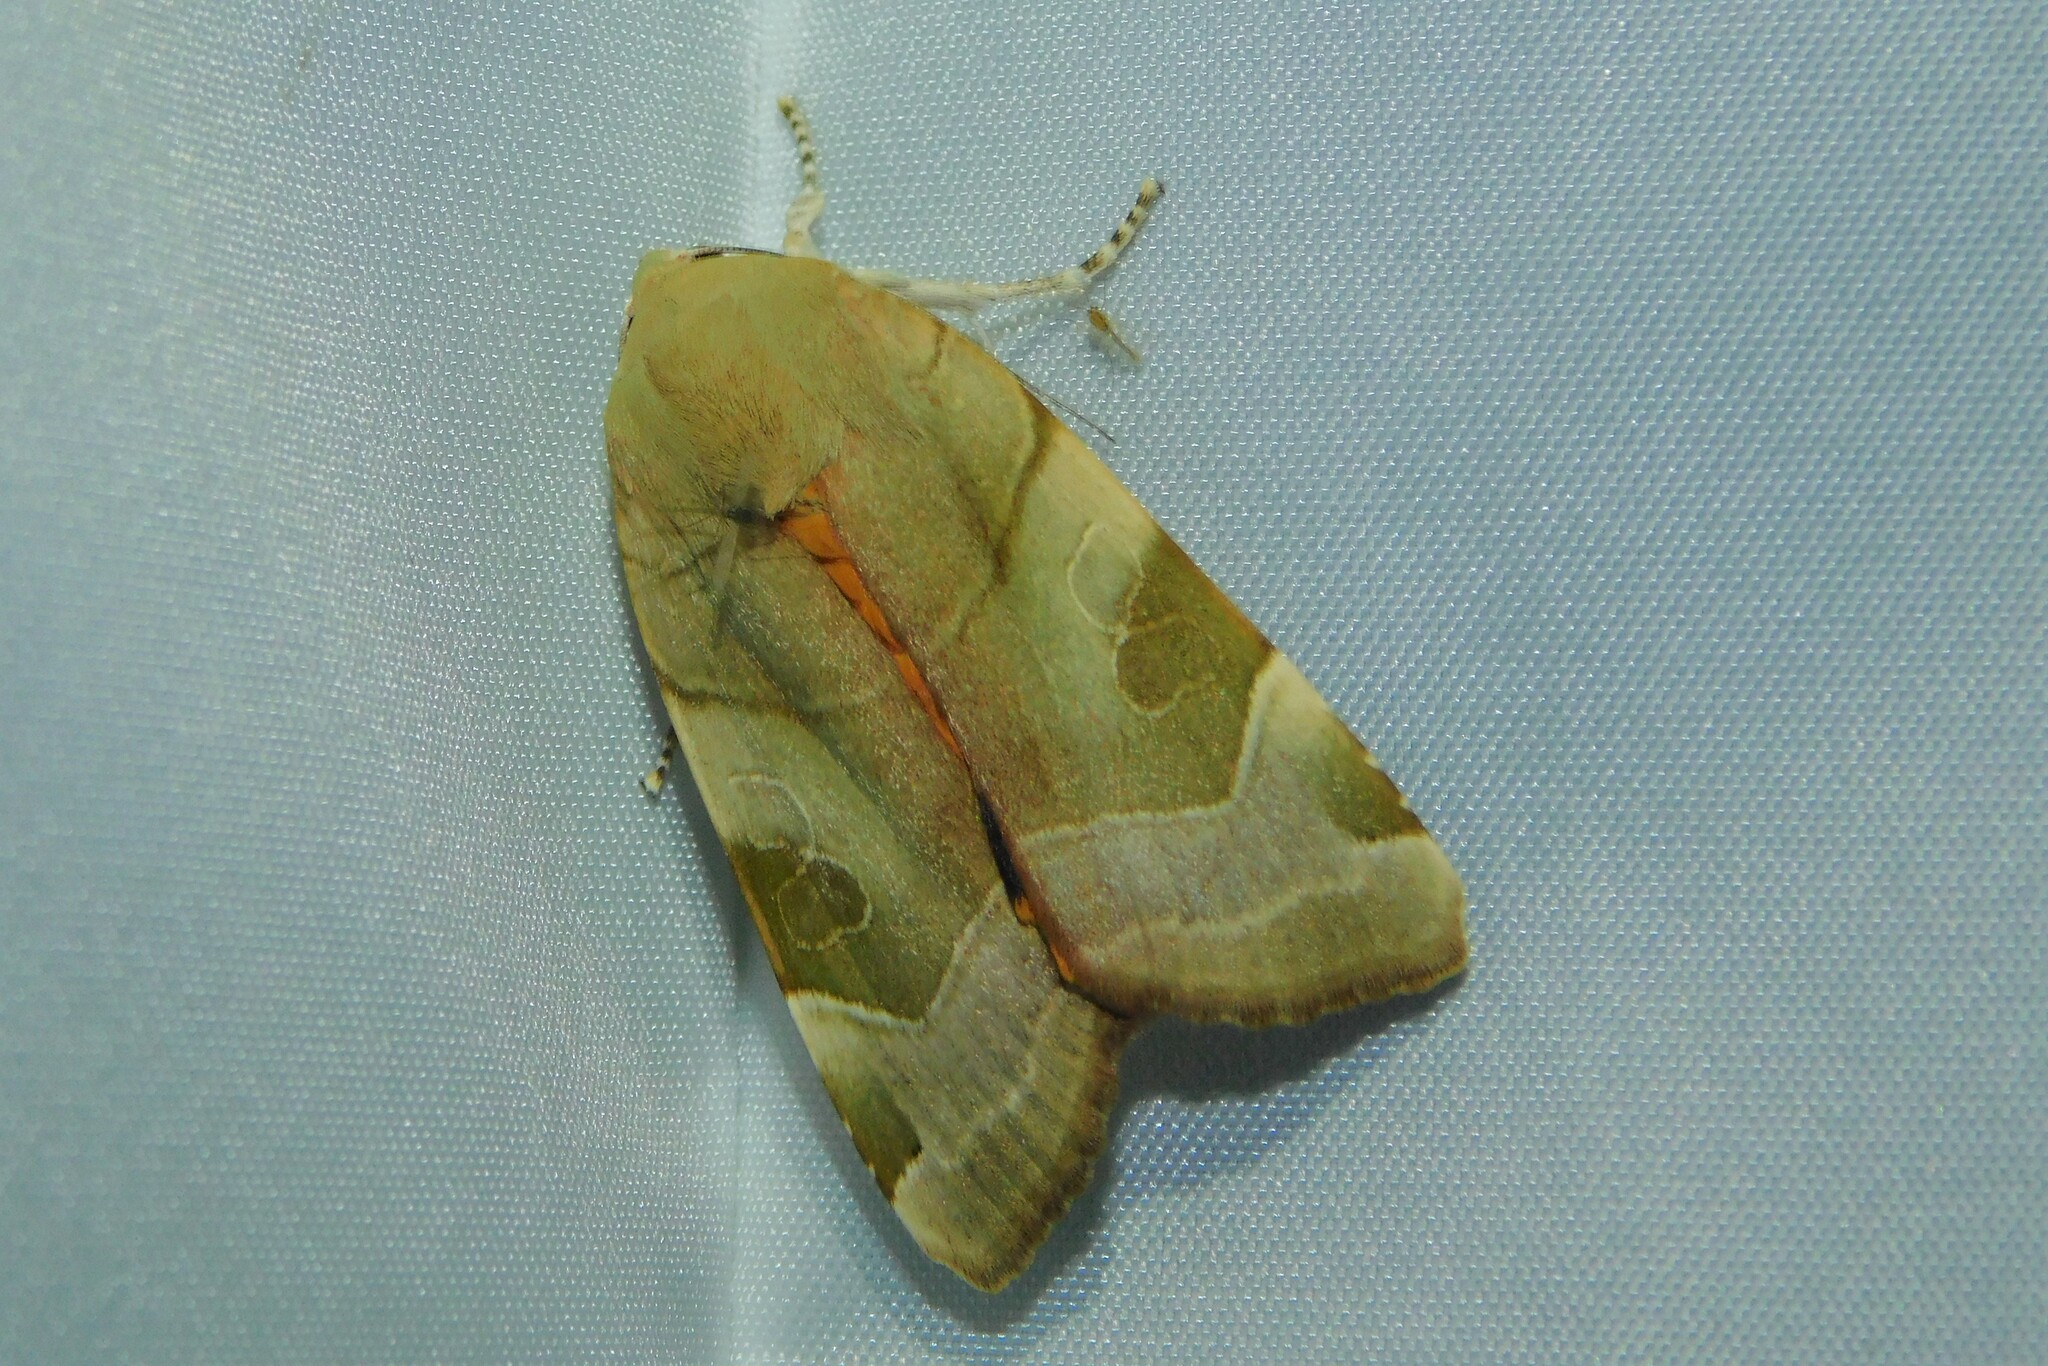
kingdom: Animalia
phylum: Arthropoda
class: Insecta
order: Lepidoptera
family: Noctuidae
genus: Noctua
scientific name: Noctua fimbriata
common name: Broad-bordered yellow underwing
